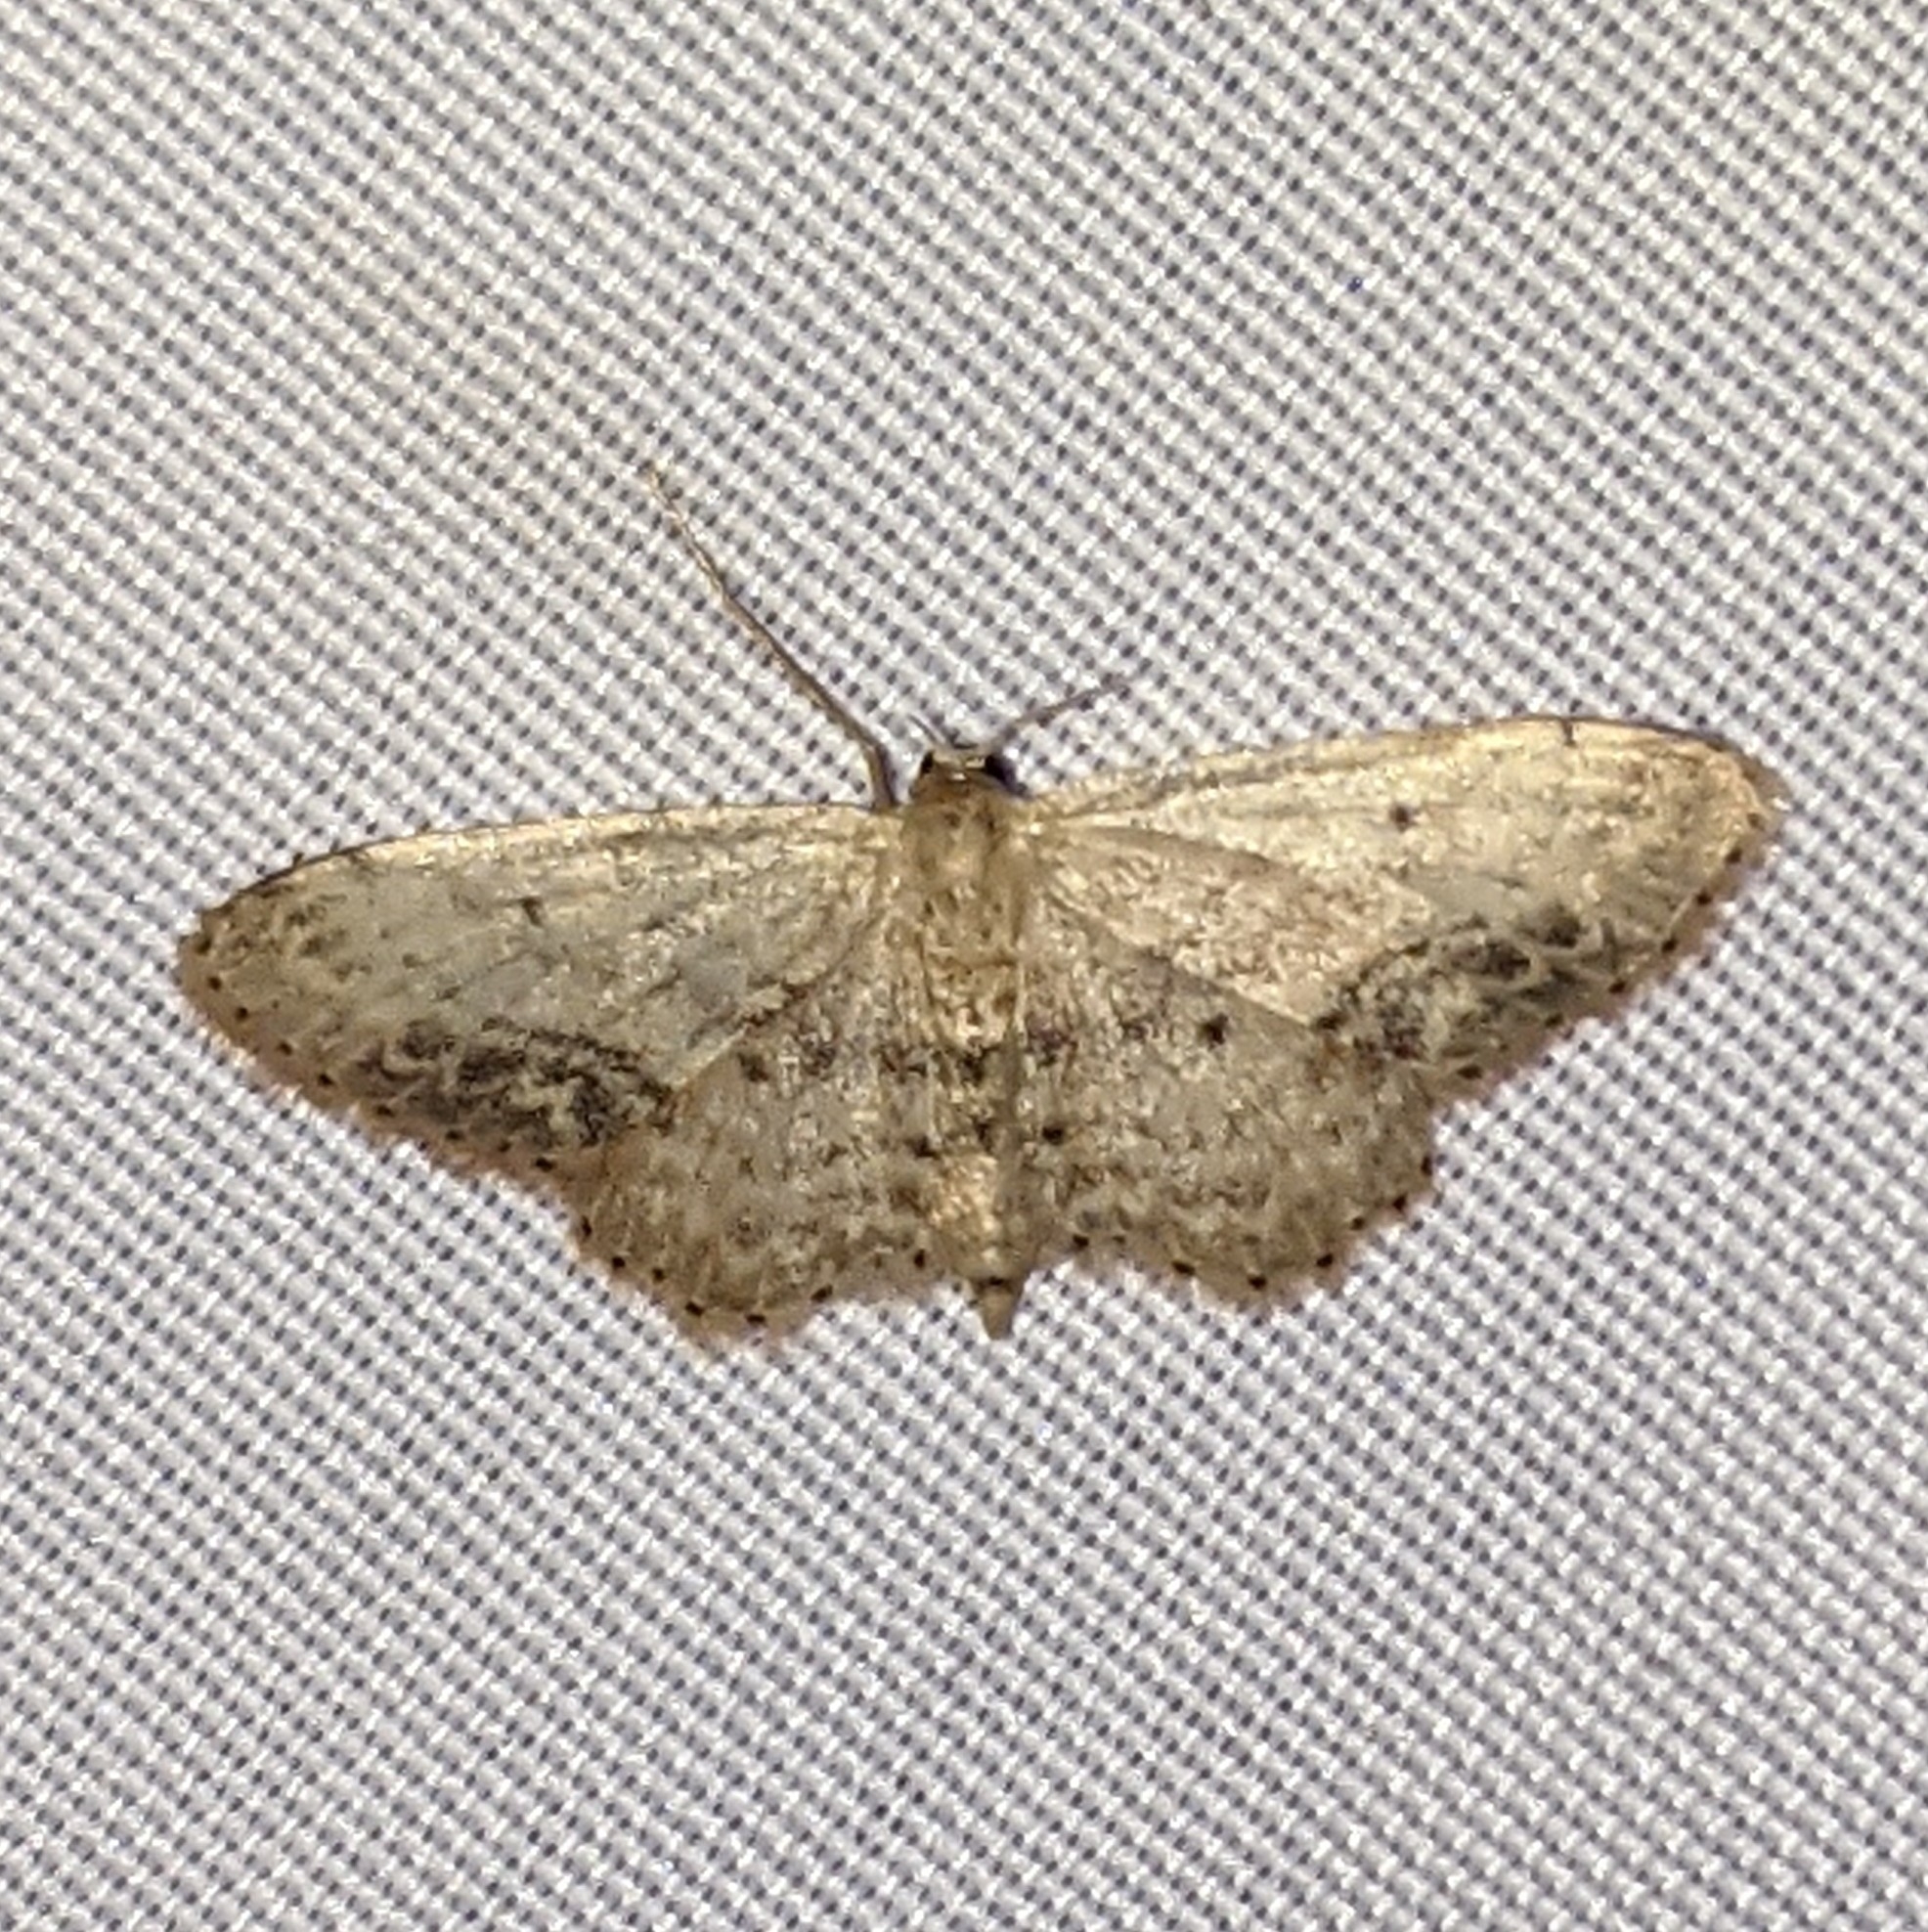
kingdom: Animalia
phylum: Arthropoda
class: Insecta
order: Lepidoptera
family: Geometridae
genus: Idaea
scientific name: Idaea dimidiata
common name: Single-dotted wave
